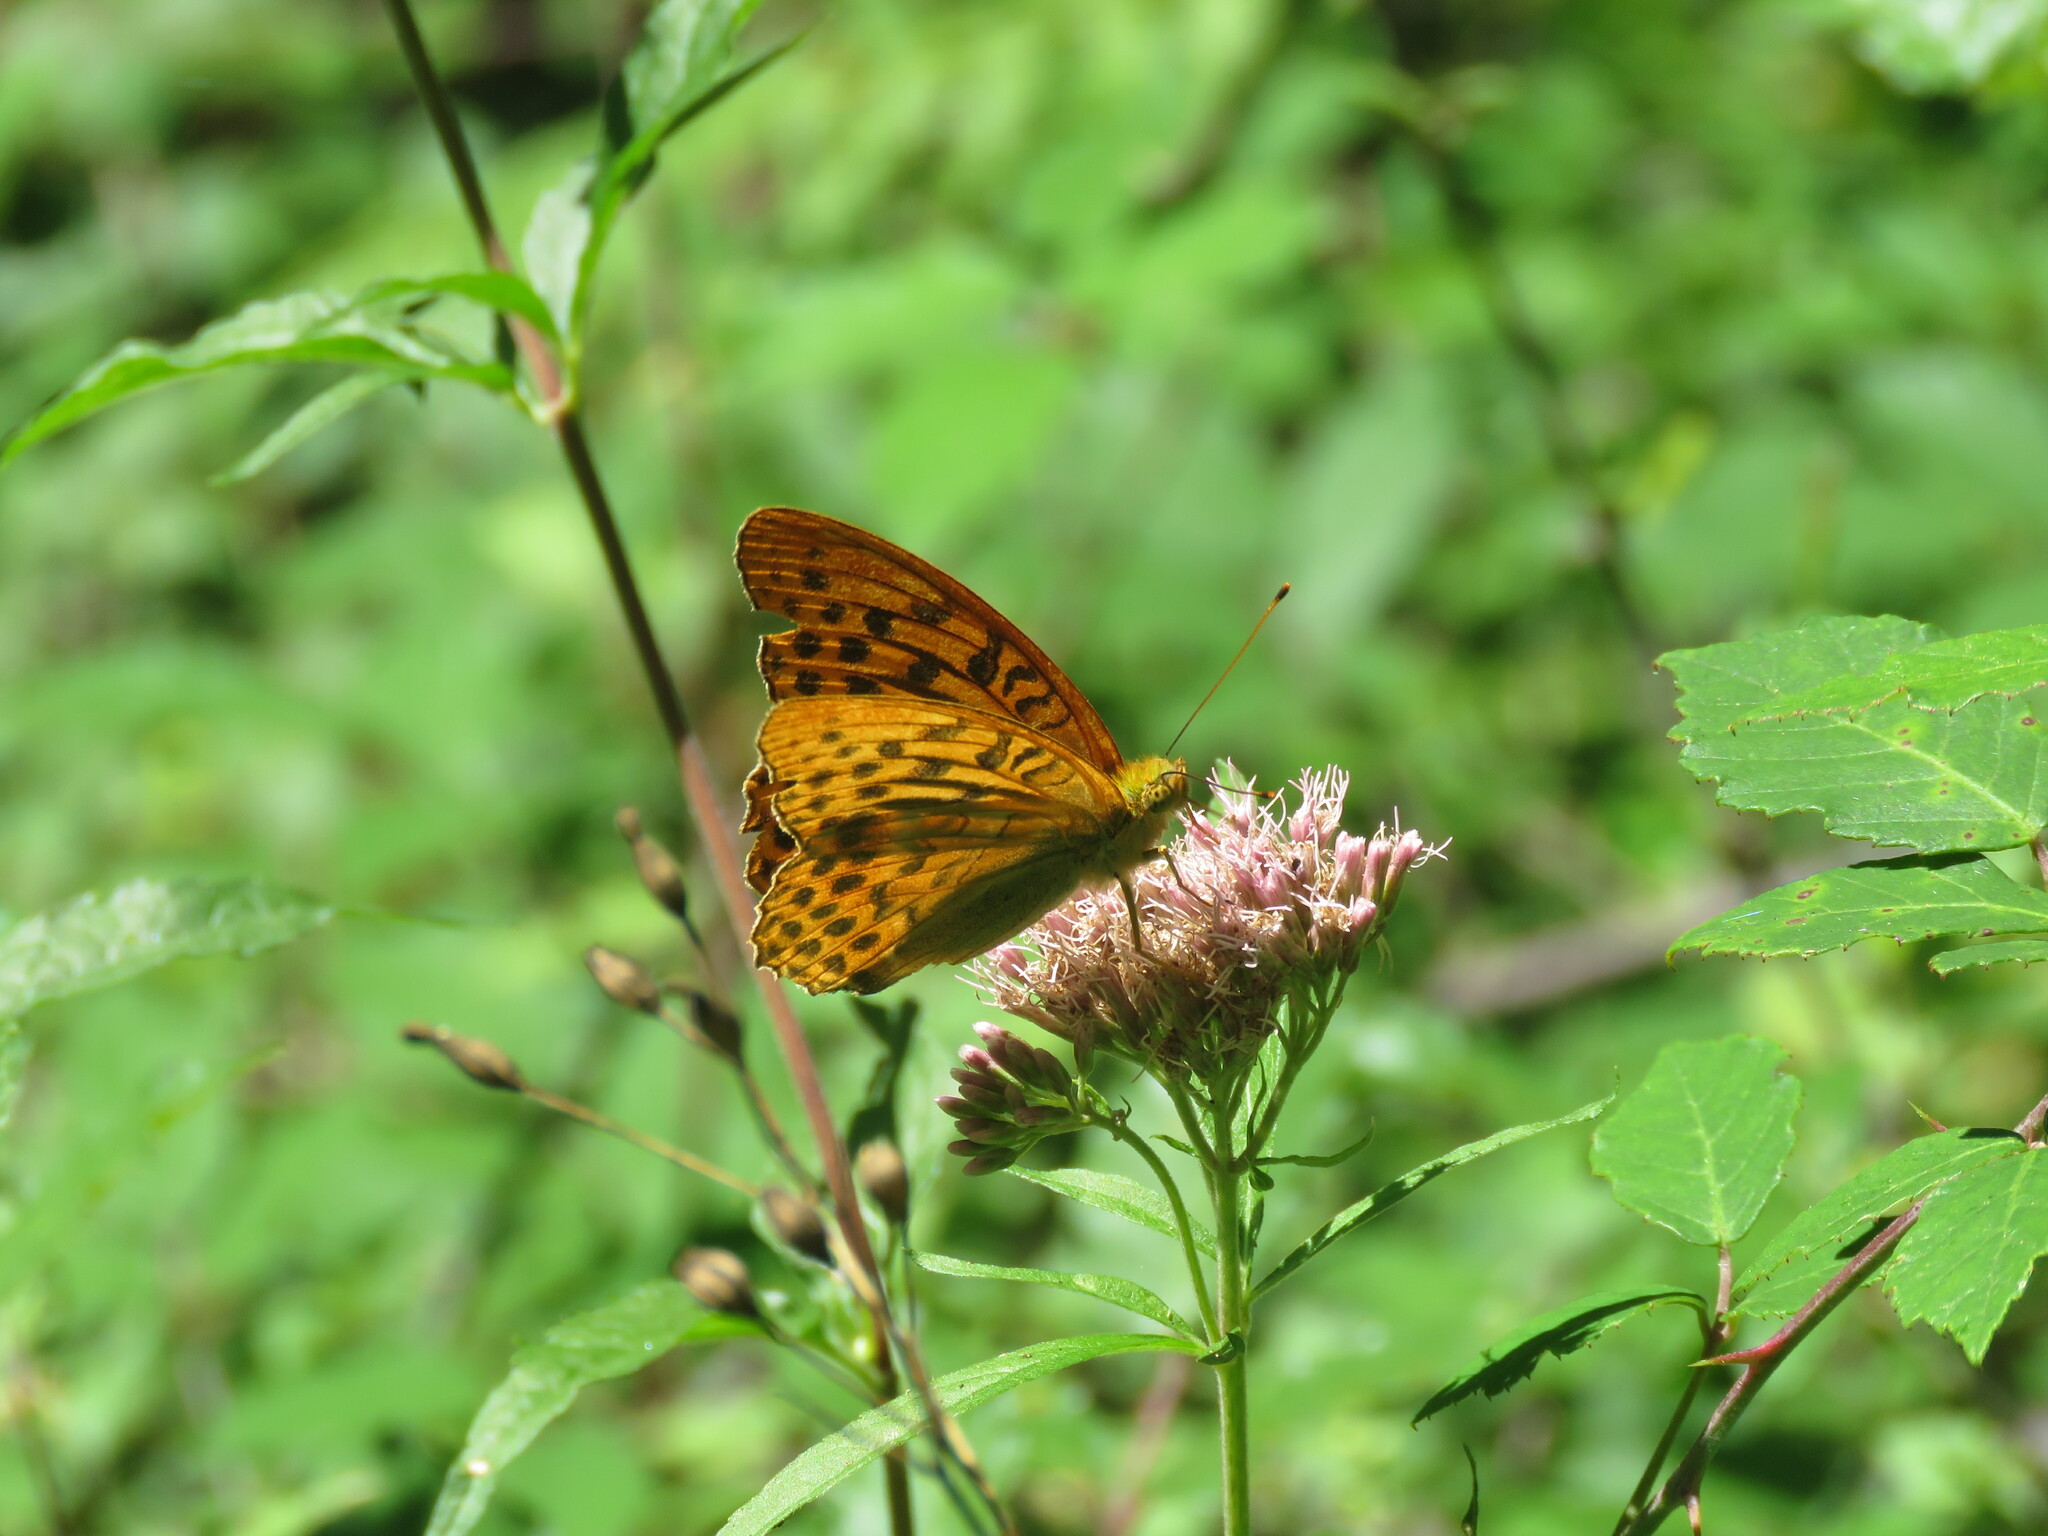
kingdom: Animalia
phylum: Arthropoda
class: Insecta
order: Lepidoptera
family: Nymphalidae
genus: Argynnis
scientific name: Argynnis paphia
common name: Silver-washed fritillary
